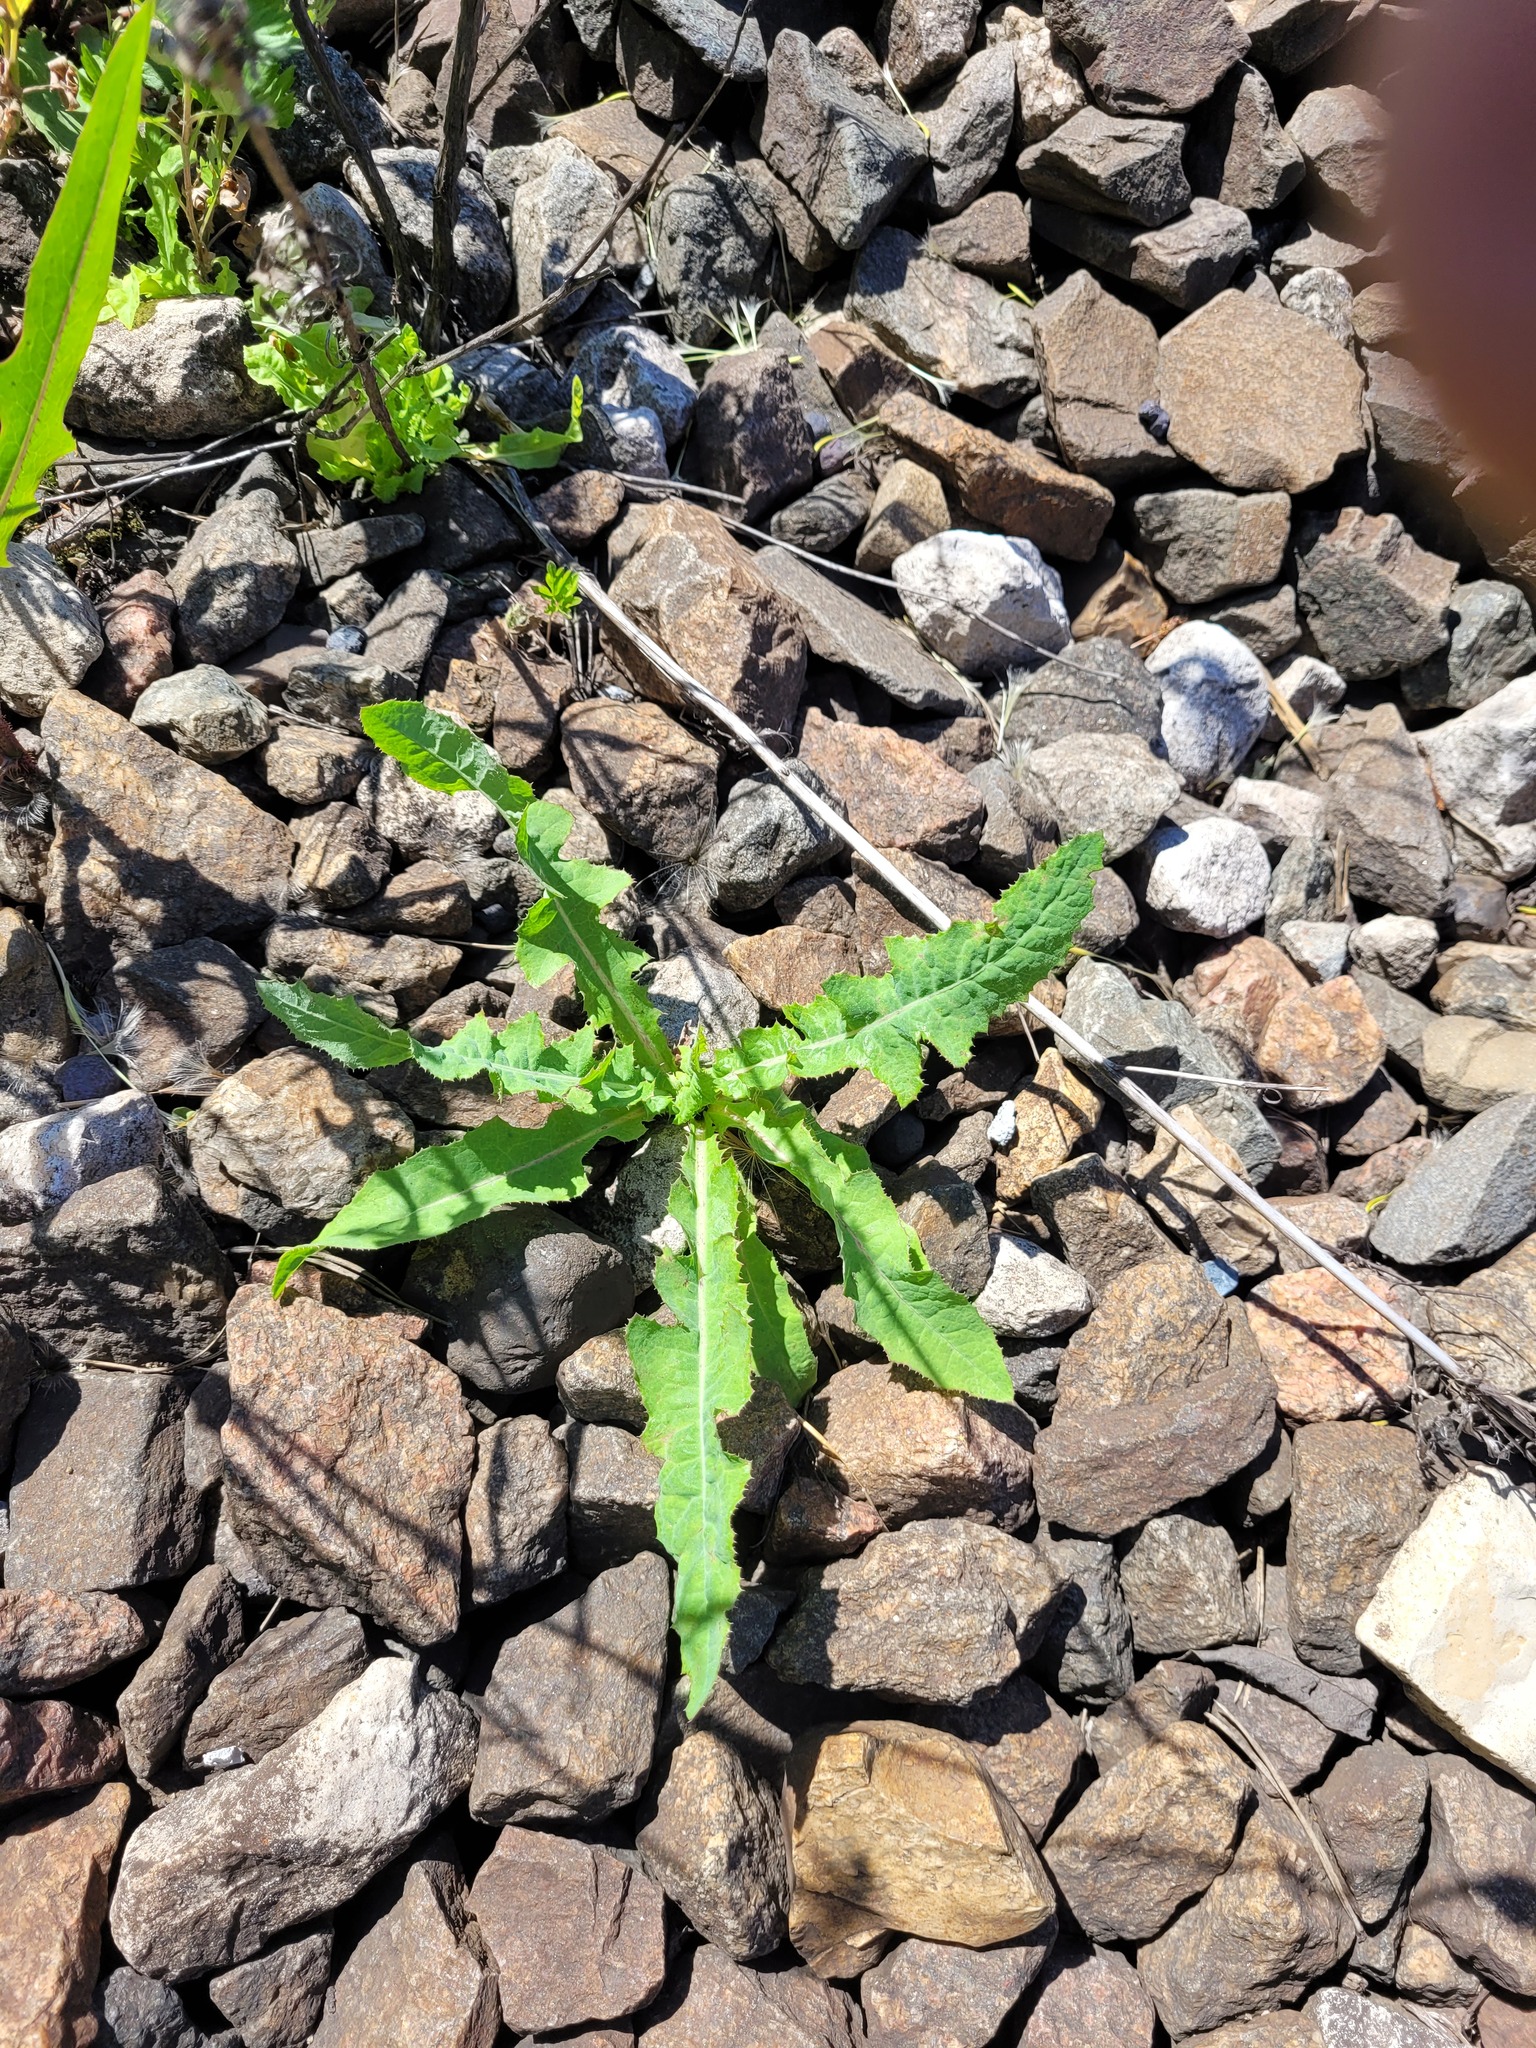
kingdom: Plantae
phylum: Tracheophyta
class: Magnoliopsida
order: Asterales
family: Asteraceae
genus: Sonchus
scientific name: Sonchus arvensis
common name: Perennial sow-thistle
